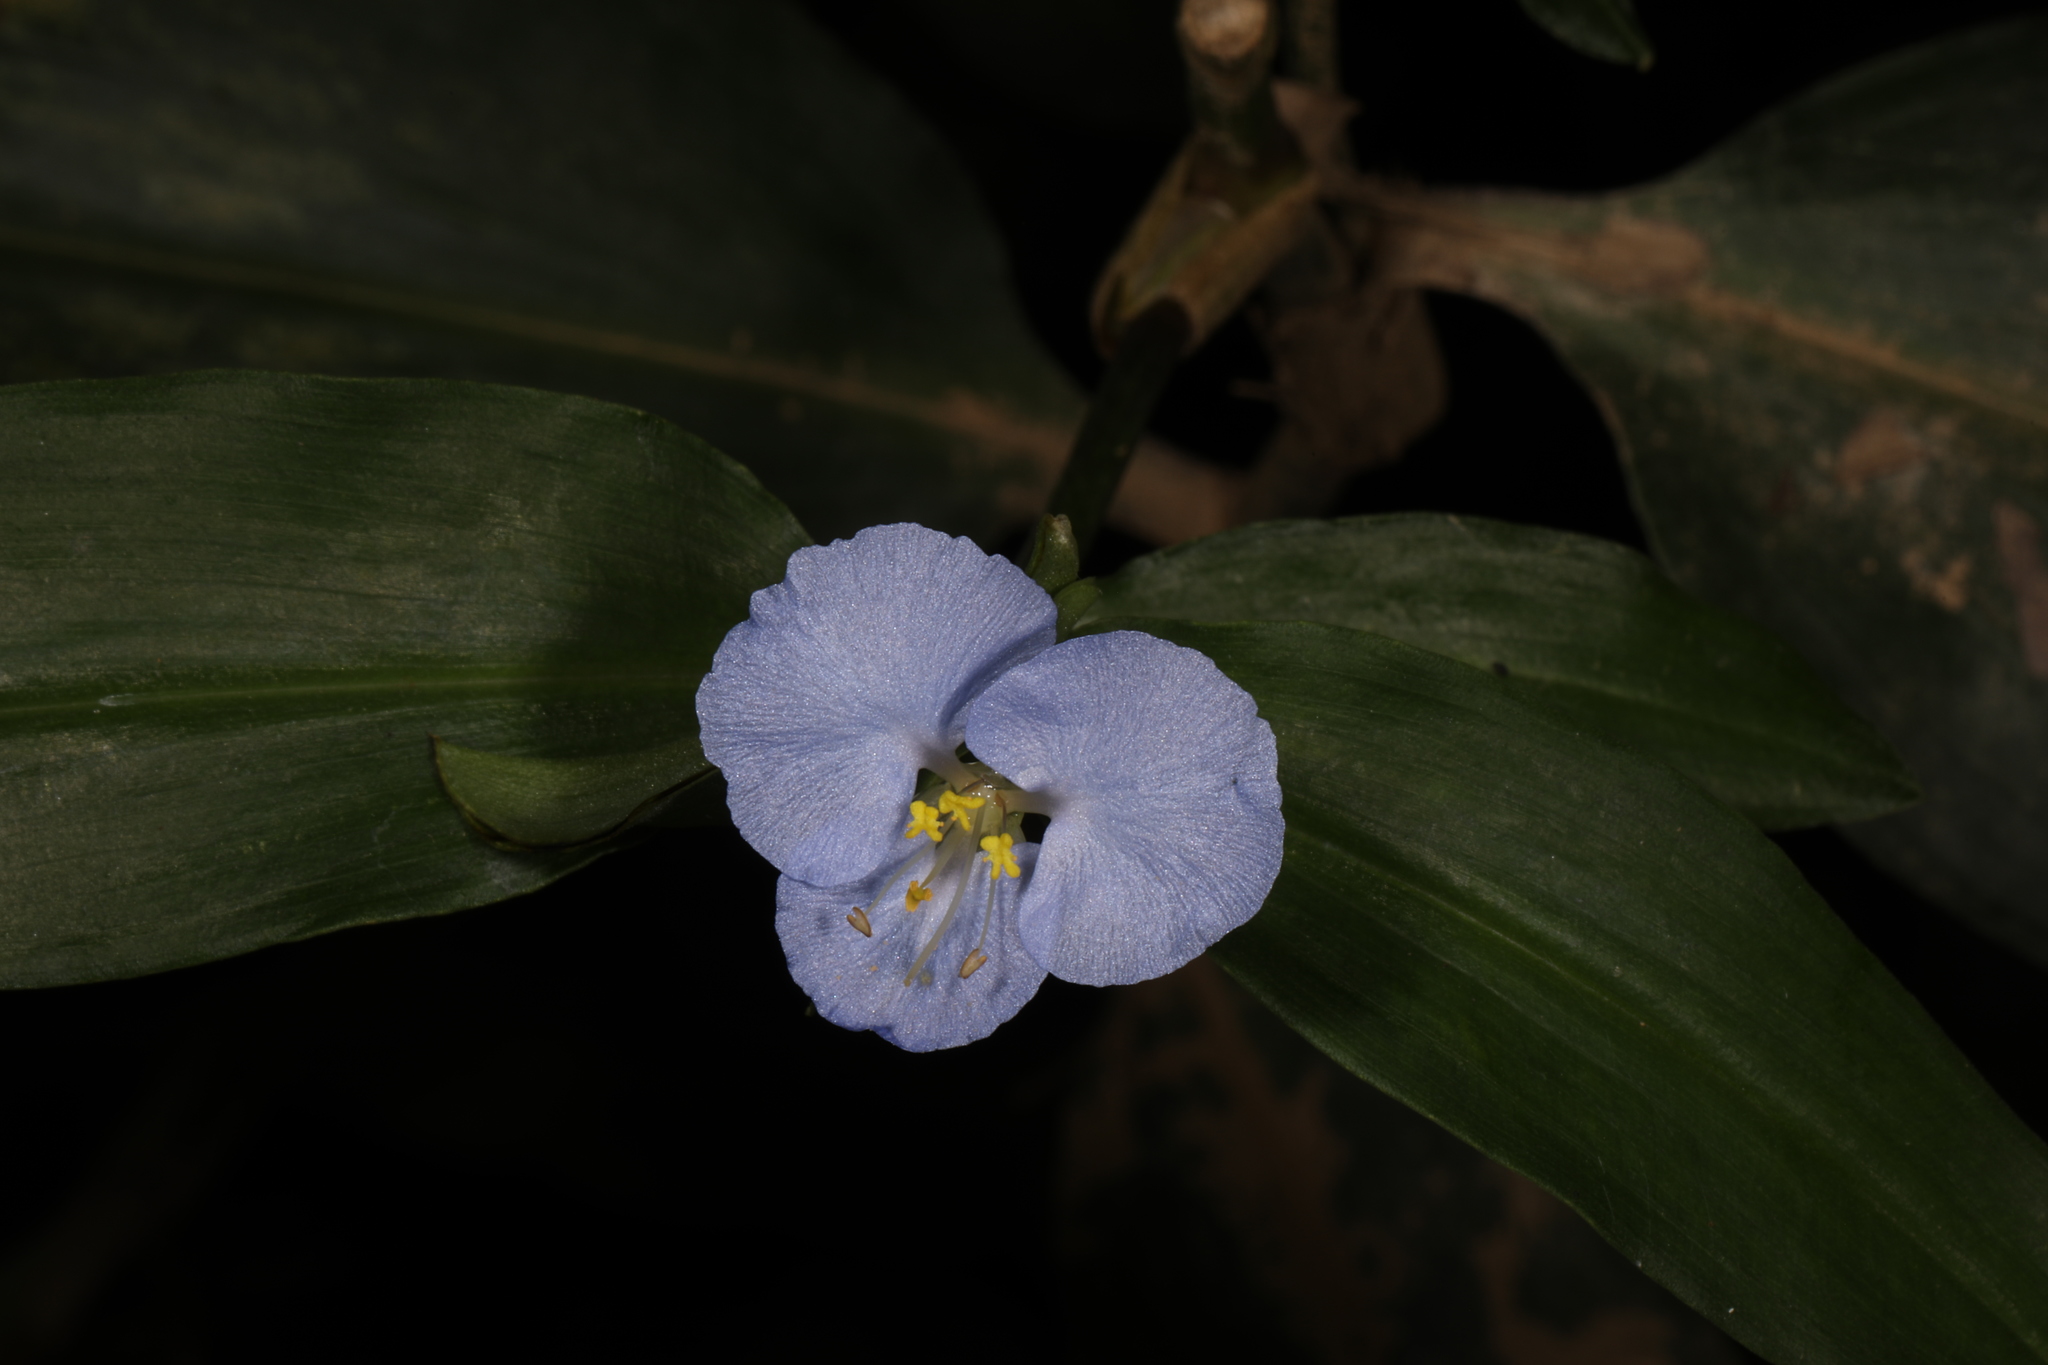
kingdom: Plantae
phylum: Tracheophyta
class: Liliopsida
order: Commelinales
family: Commelinaceae
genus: Commelina
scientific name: Commelina virginica
